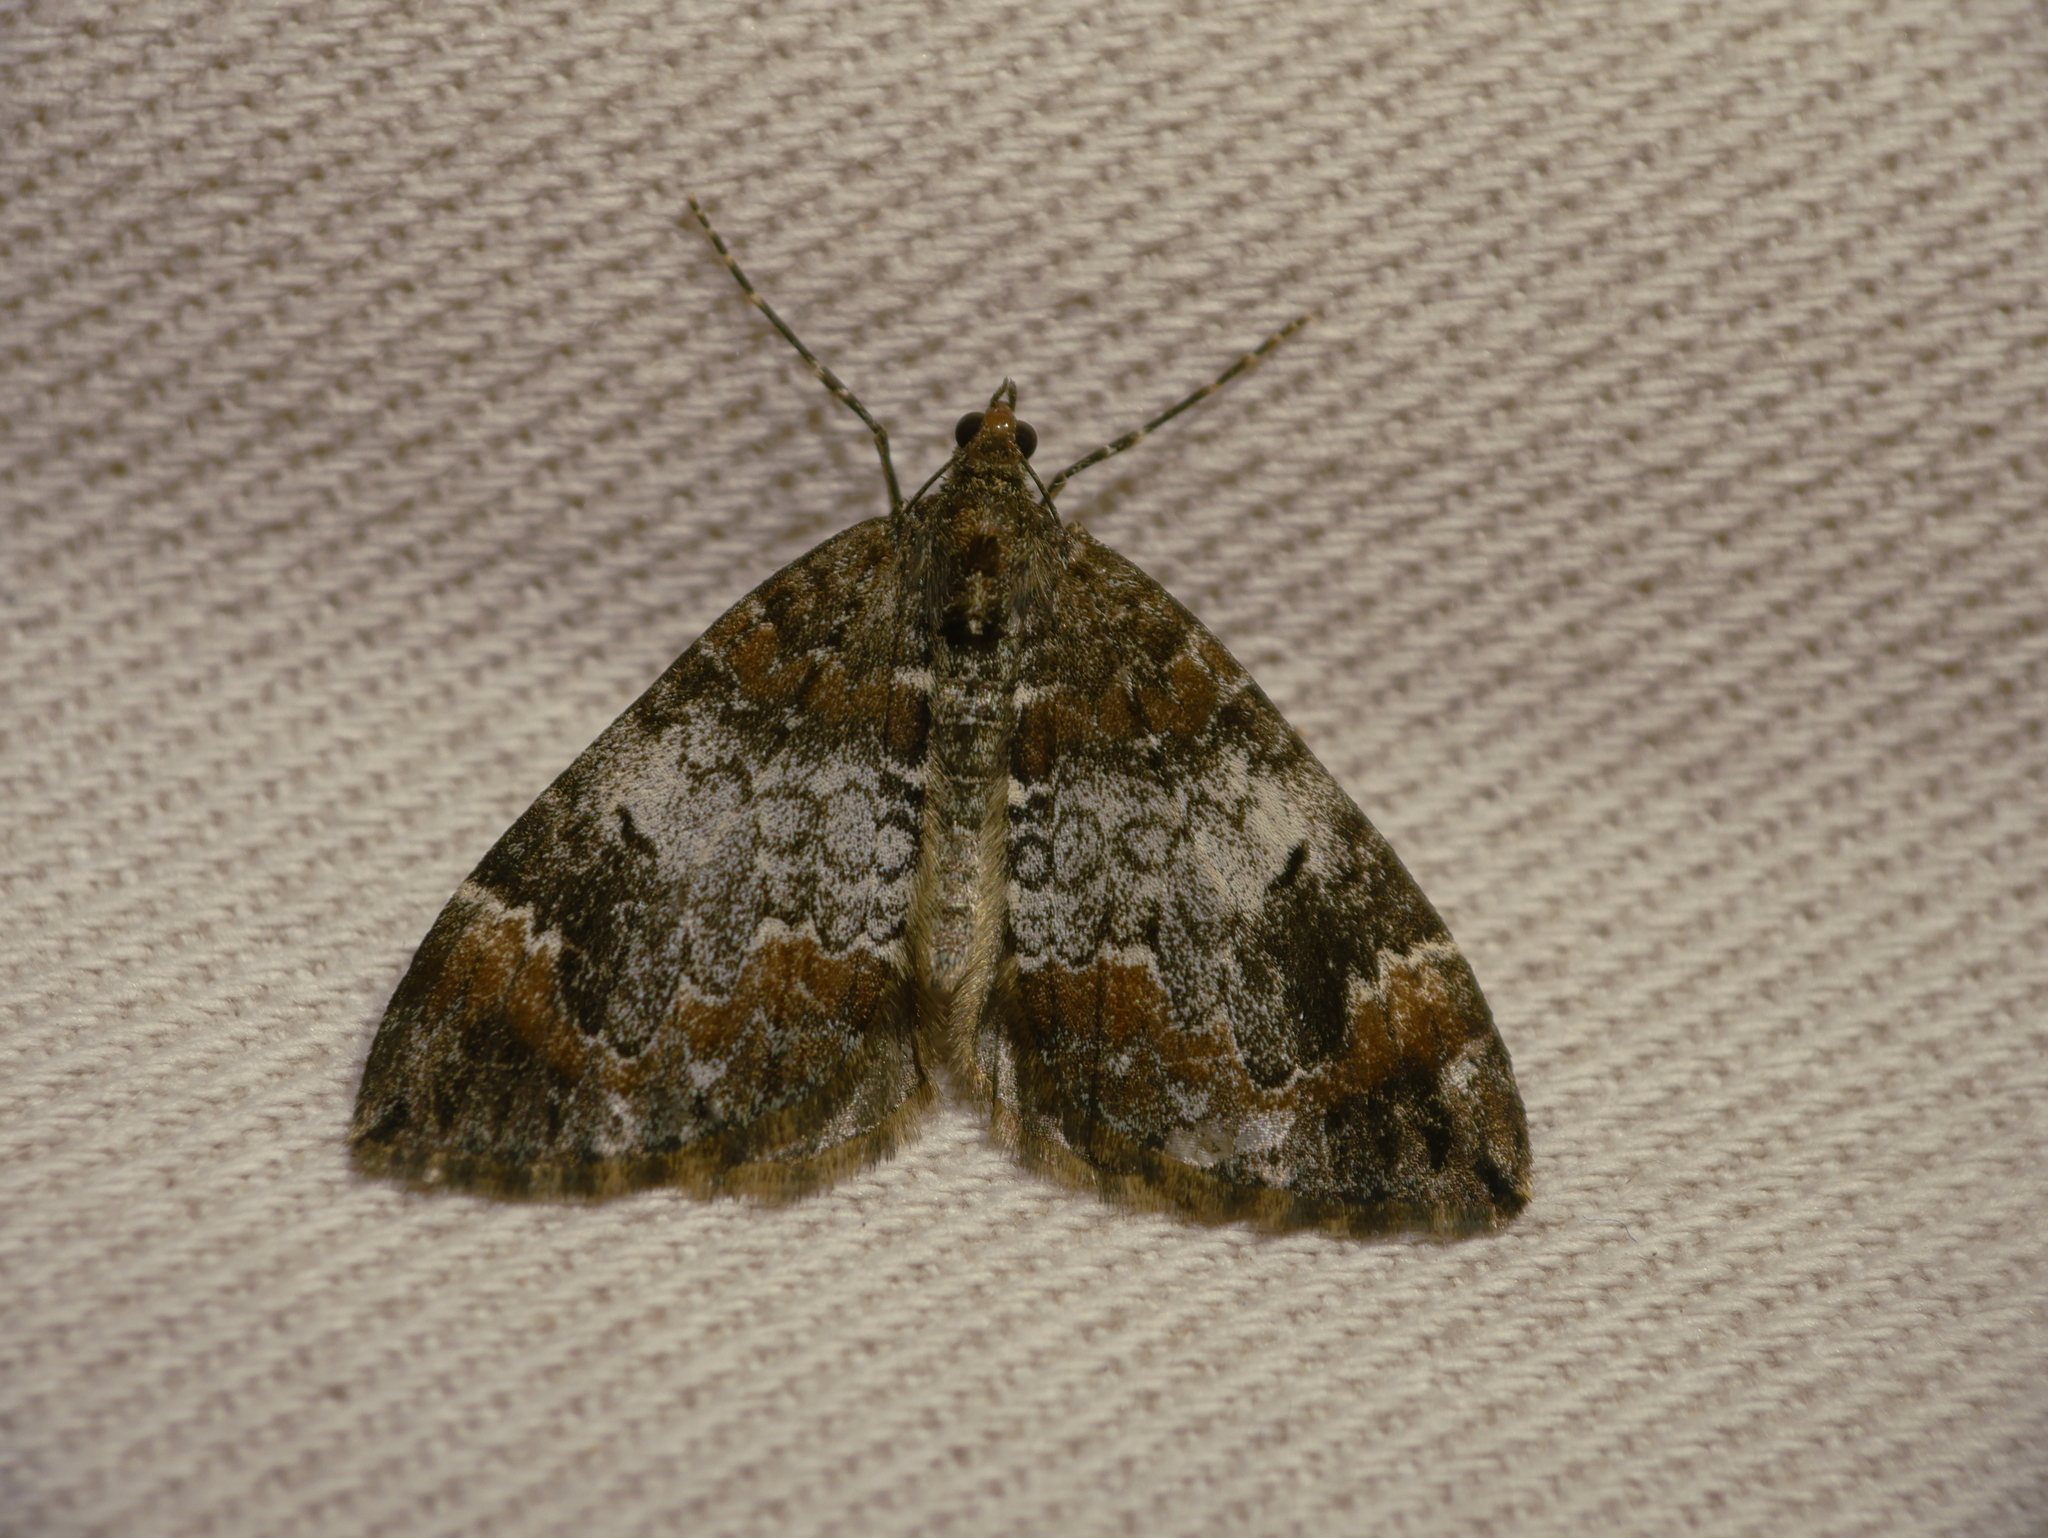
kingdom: Animalia
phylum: Arthropoda
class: Insecta
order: Lepidoptera
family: Geometridae
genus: Dysstroma
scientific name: Dysstroma truncata
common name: Common marbled carpet
